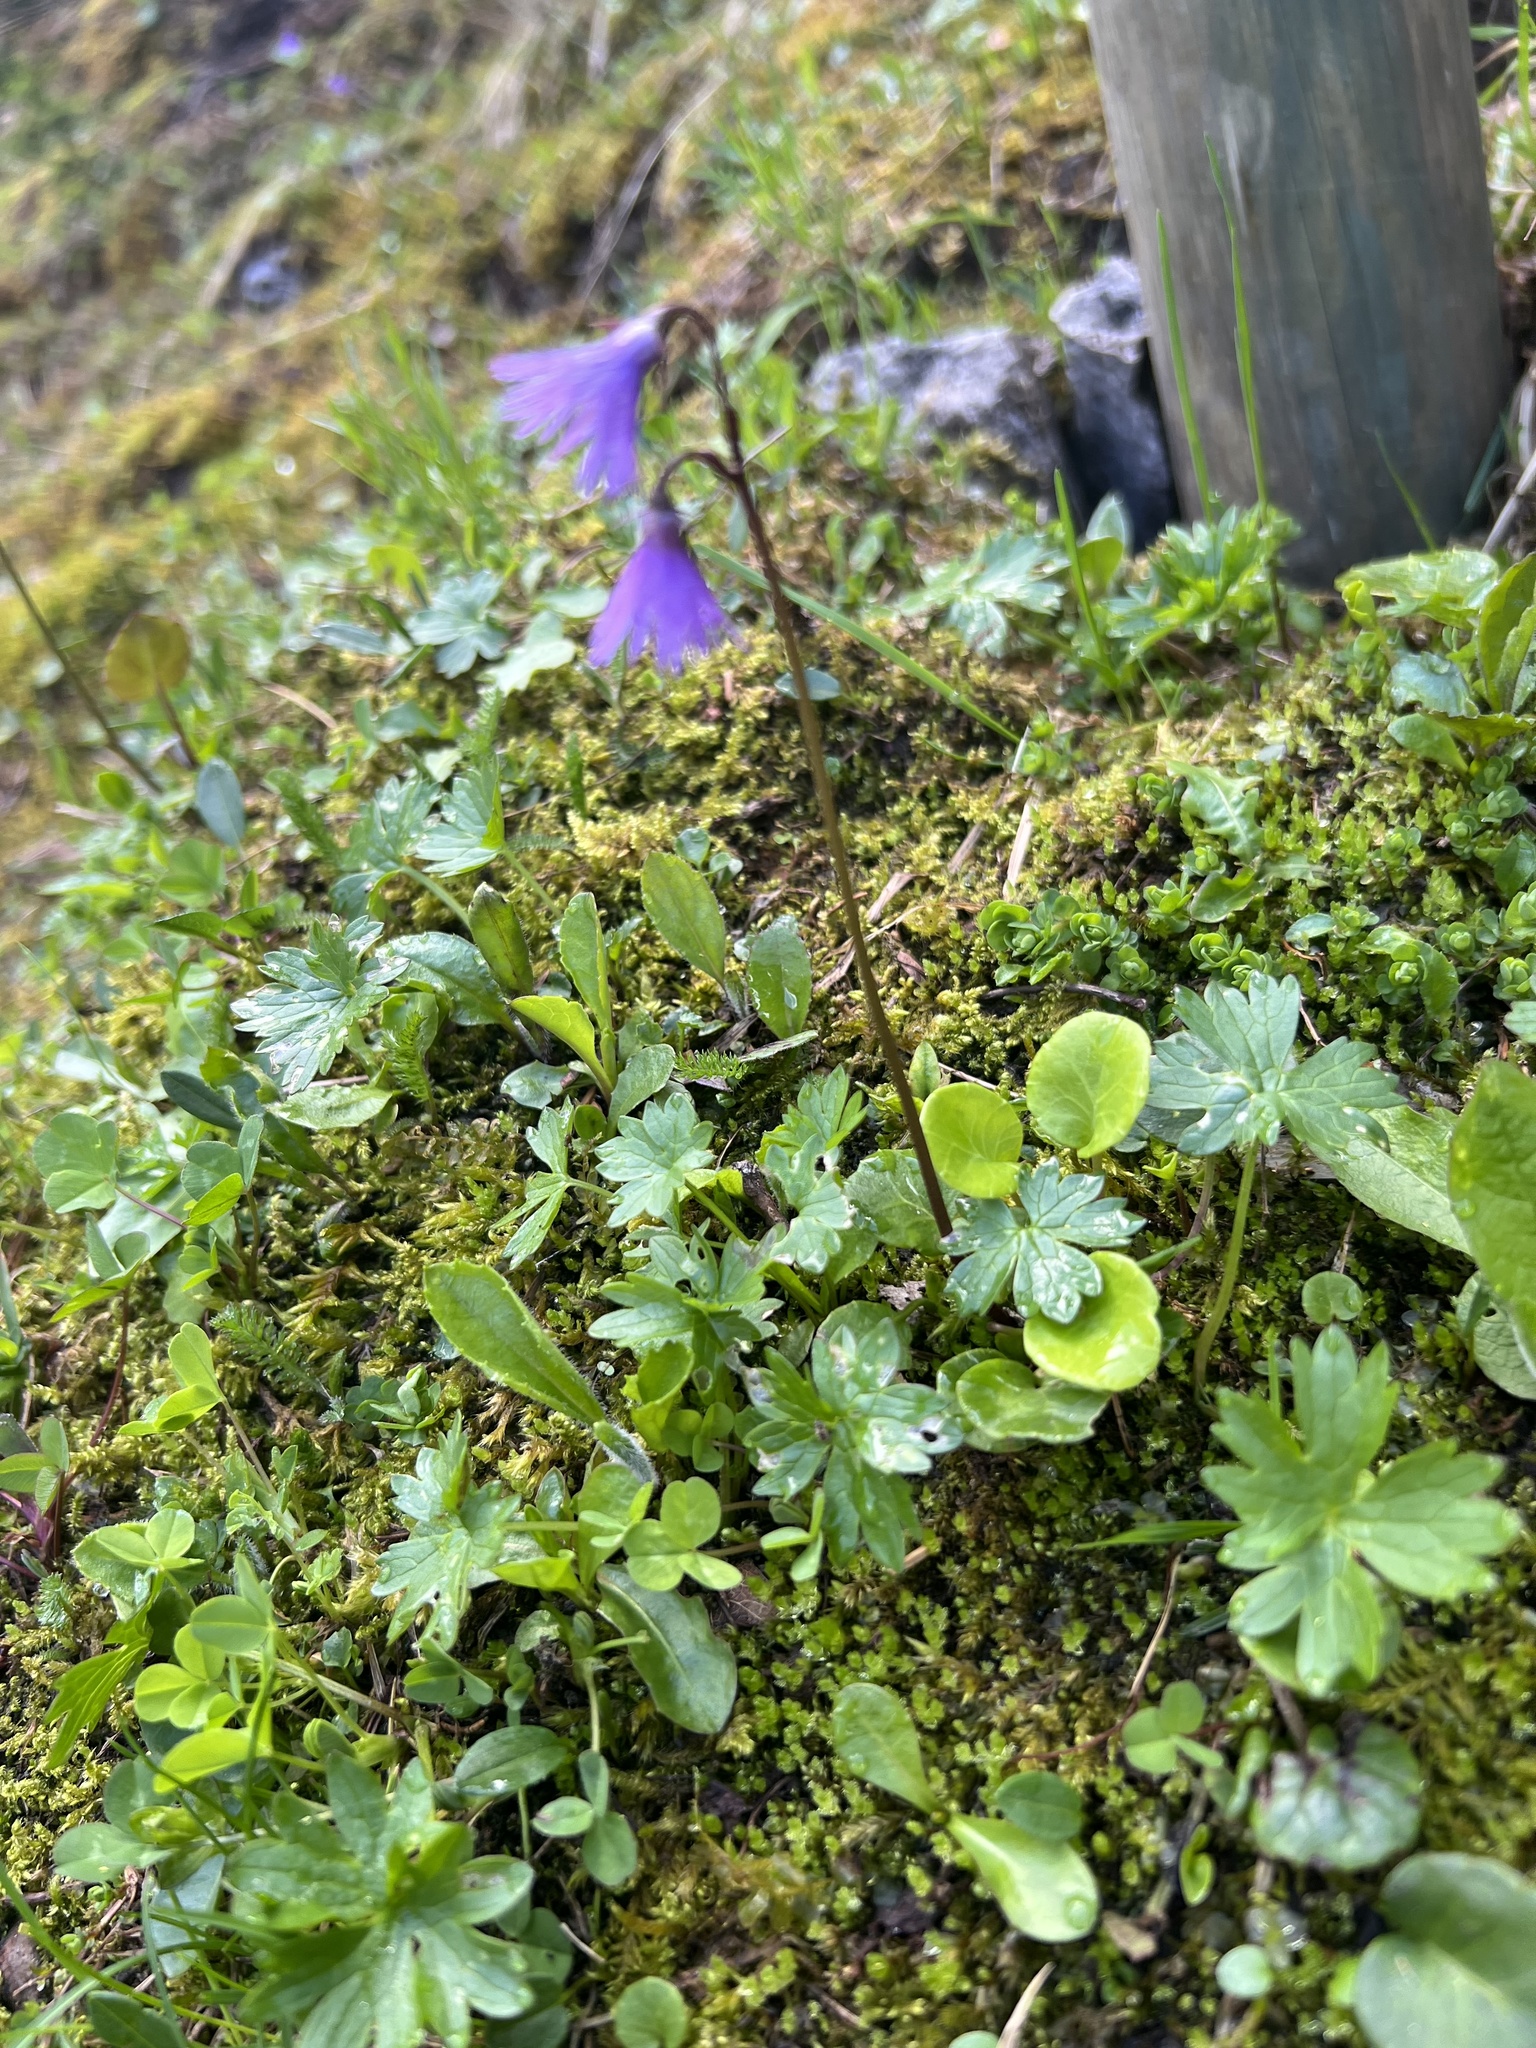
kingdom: Plantae
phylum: Tracheophyta
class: Magnoliopsida
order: Ericales
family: Primulaceae
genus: Soldanella
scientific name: Soldanella alpina
